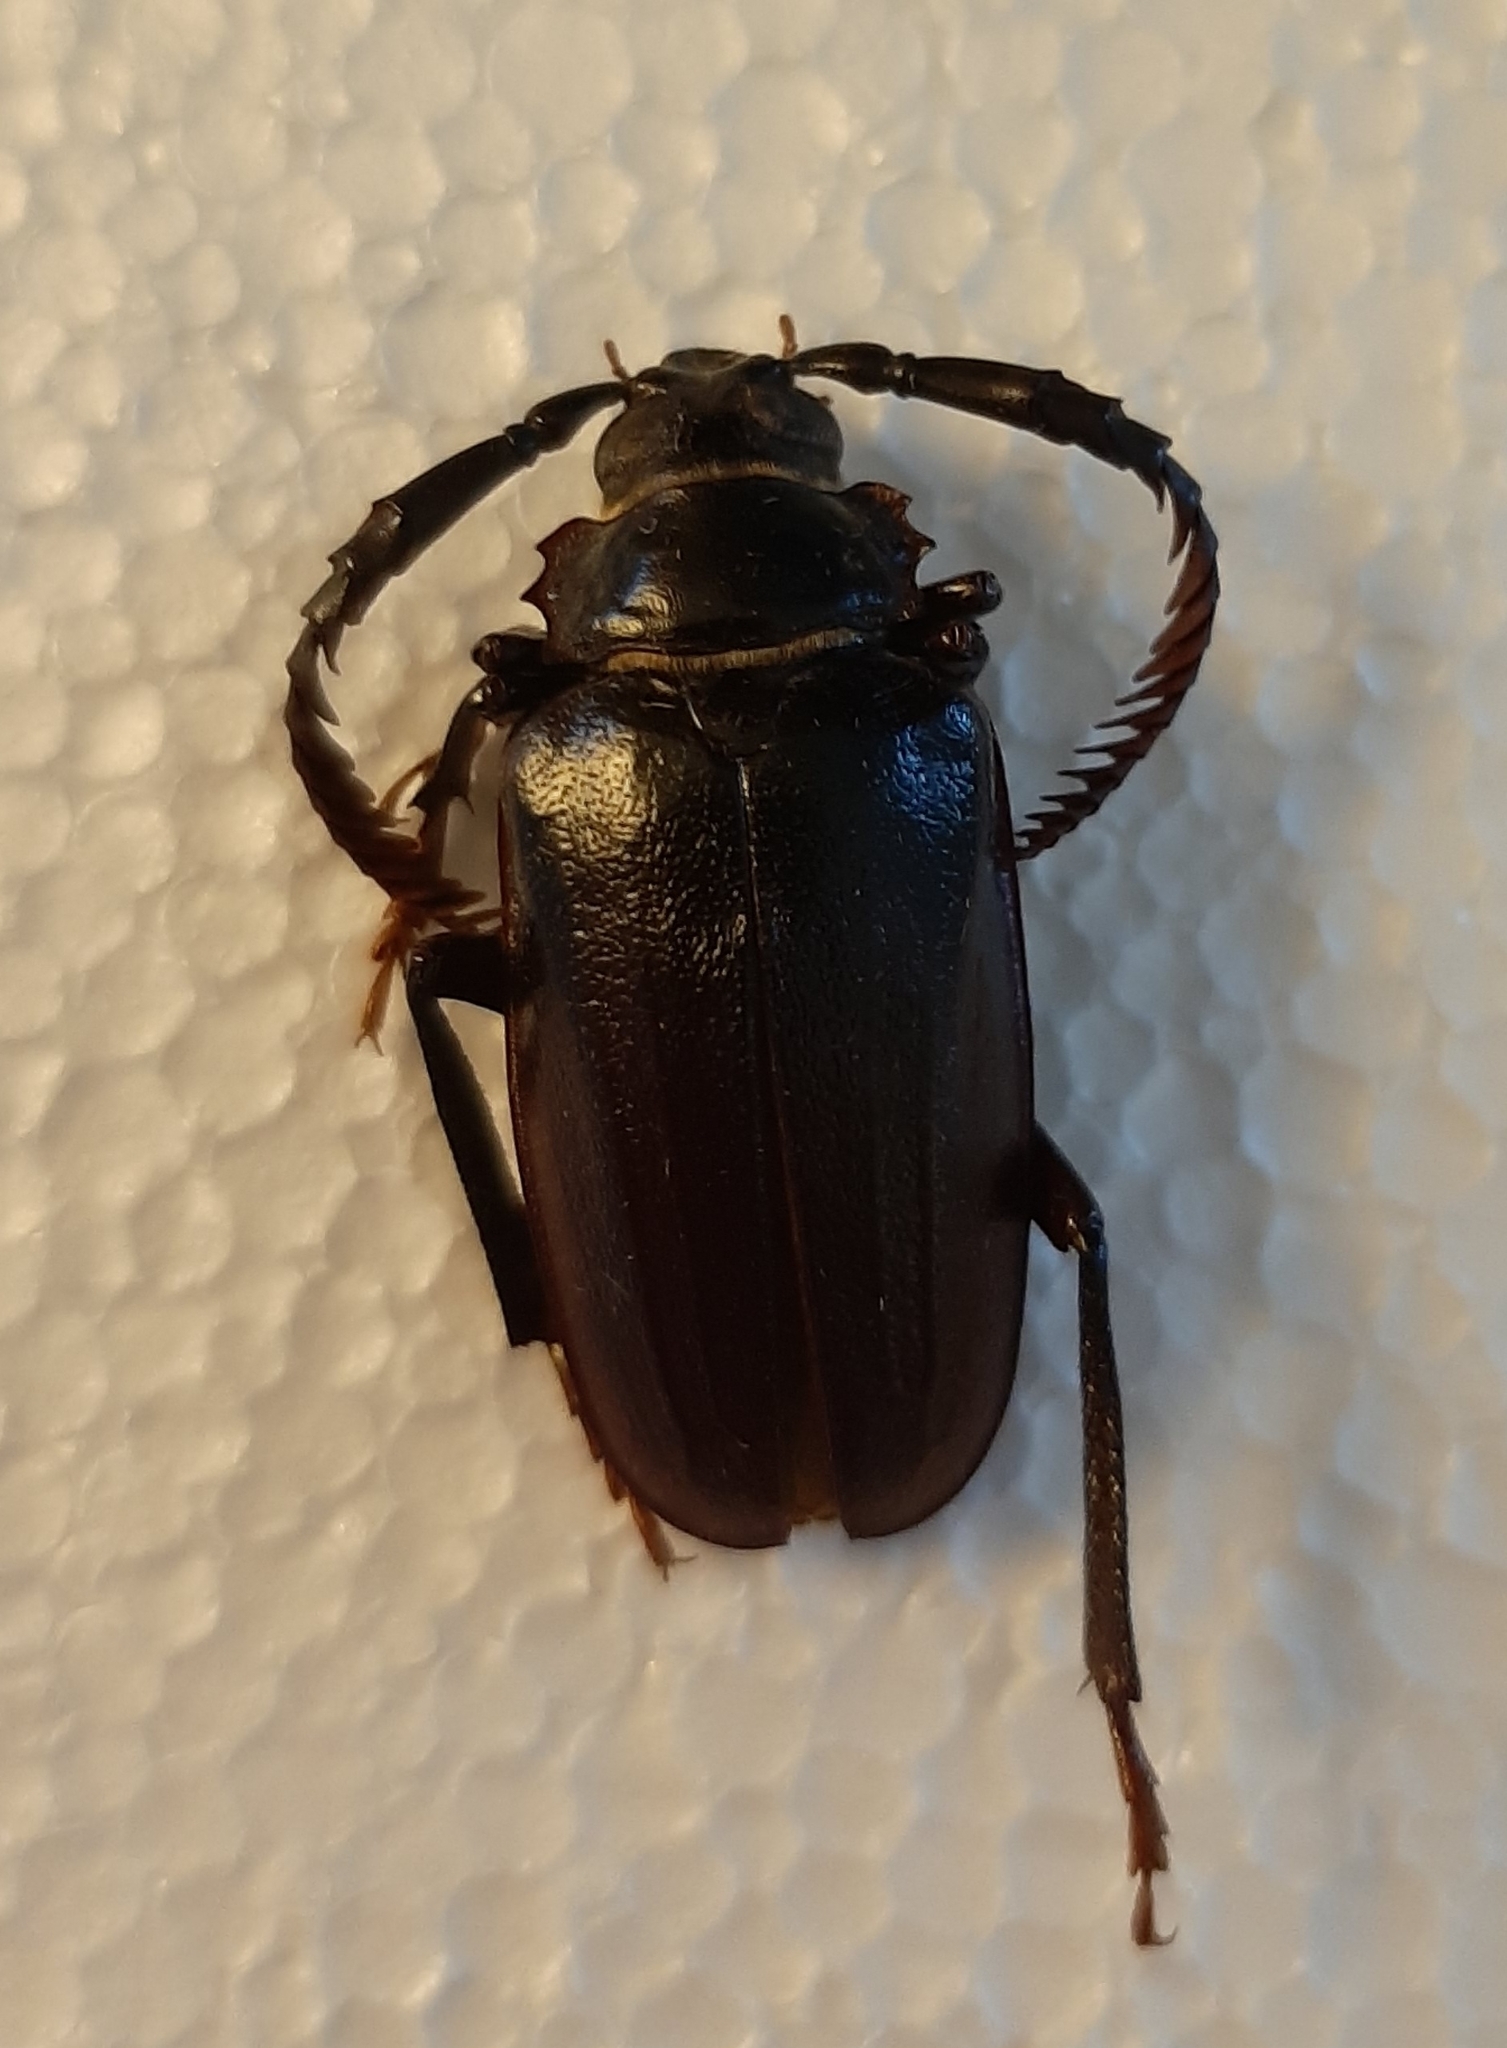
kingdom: Animalia
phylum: Arthropoda
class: Insecta
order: Coleoptera
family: Cerambycidae
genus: Prionus
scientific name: Prionus imbricornis
